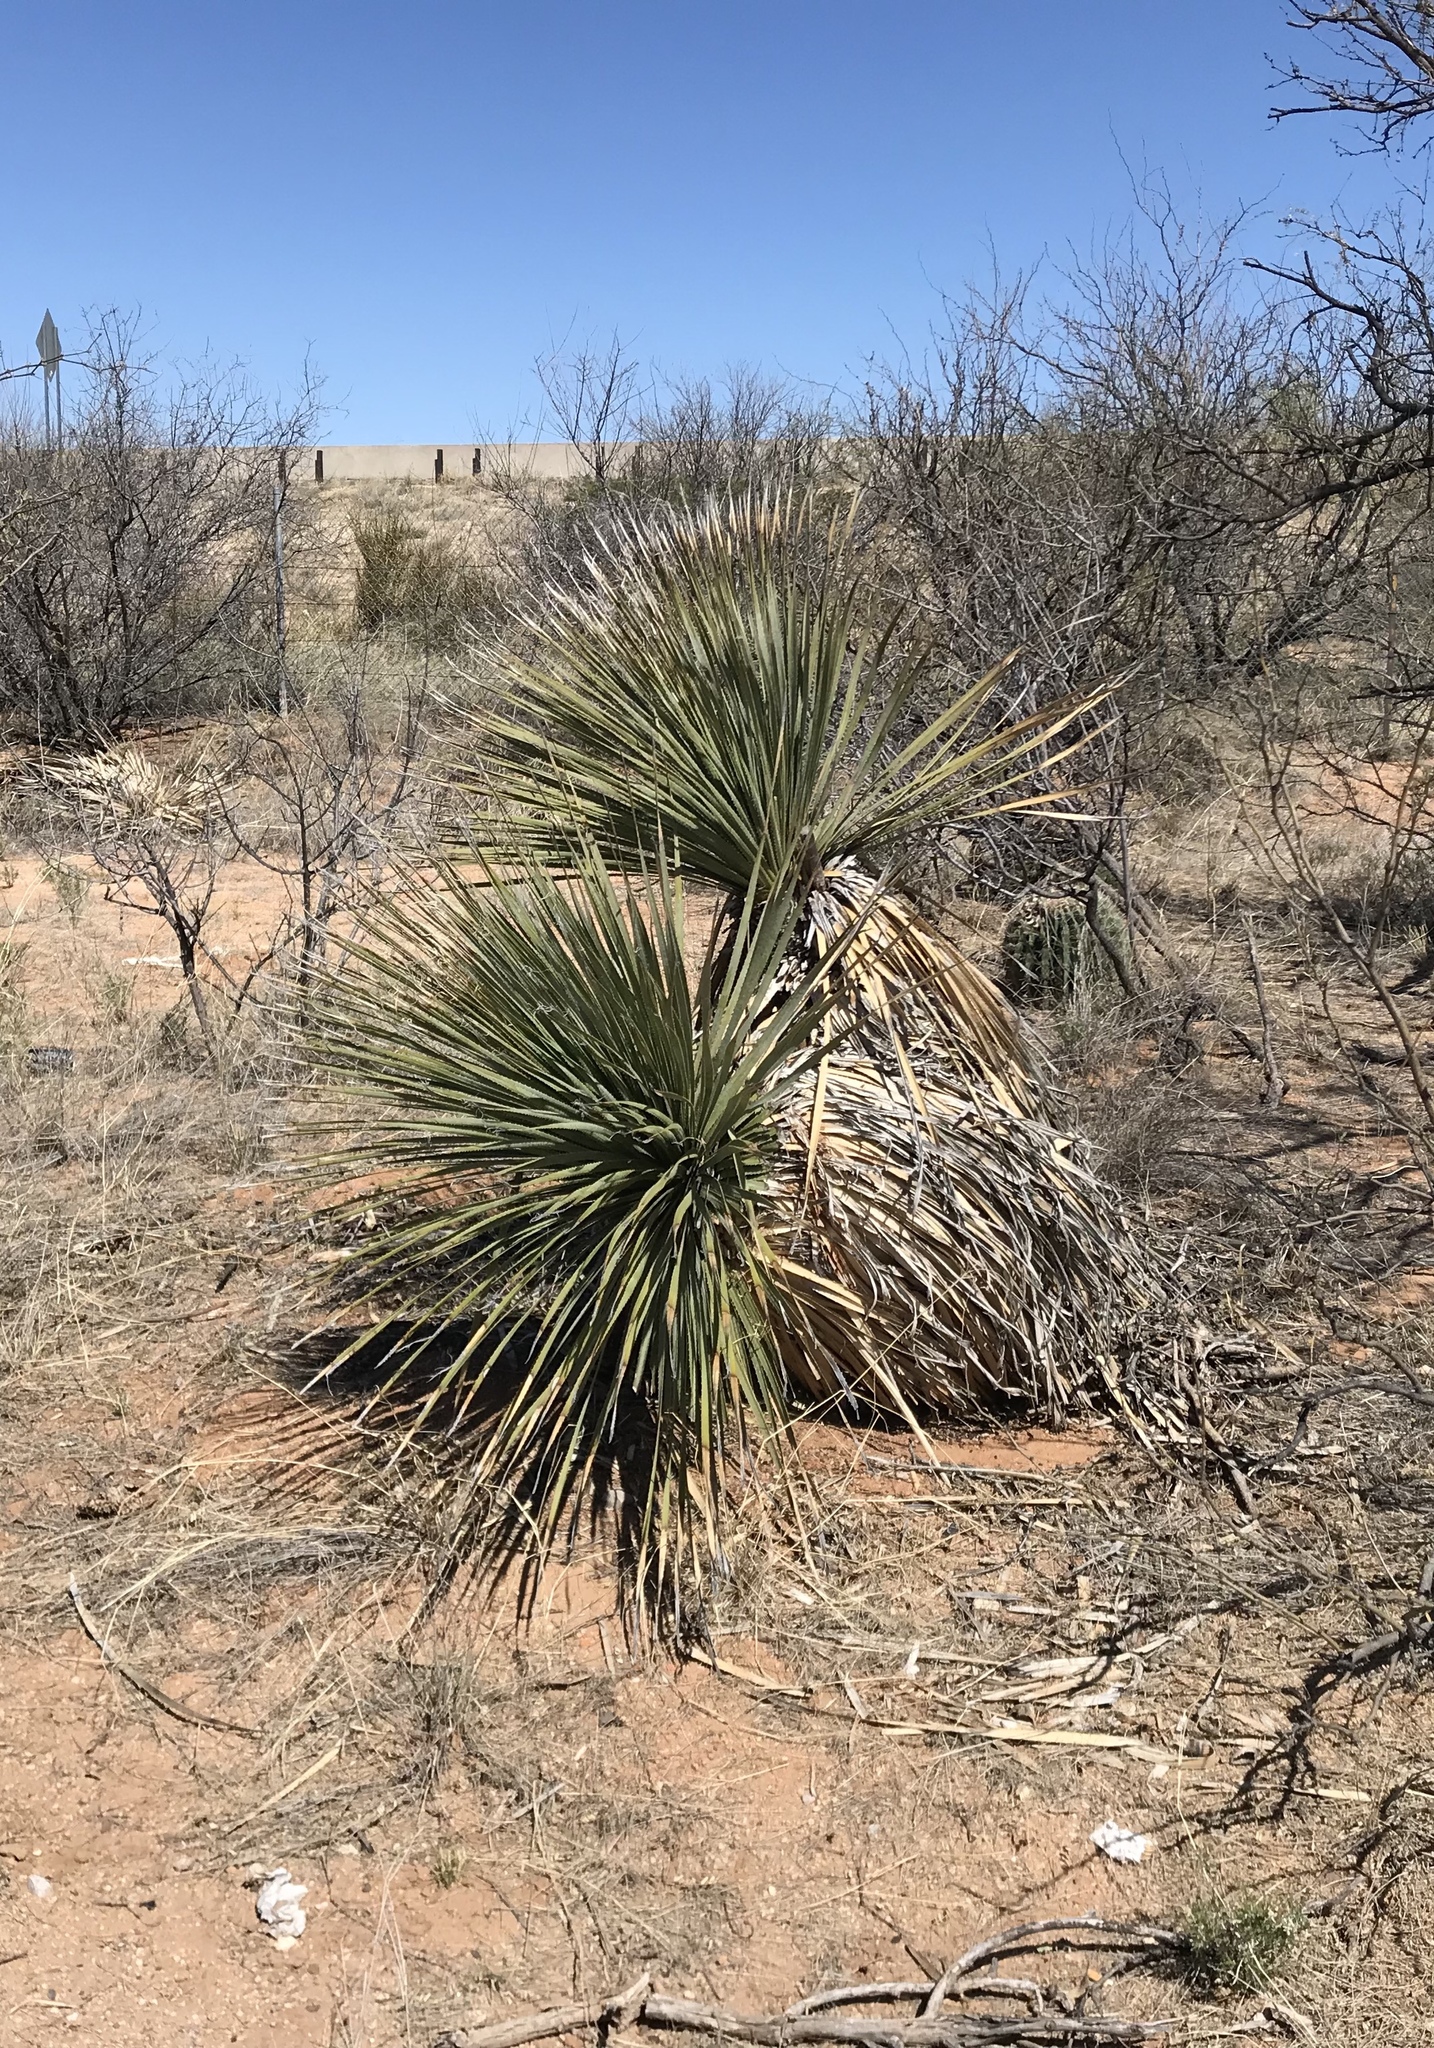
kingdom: Plantae
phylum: Tracheophyta
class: Liliopsida
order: Asparagales
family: Asparagaceae
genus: Yucca
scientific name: Yucca elata
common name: Palmella
